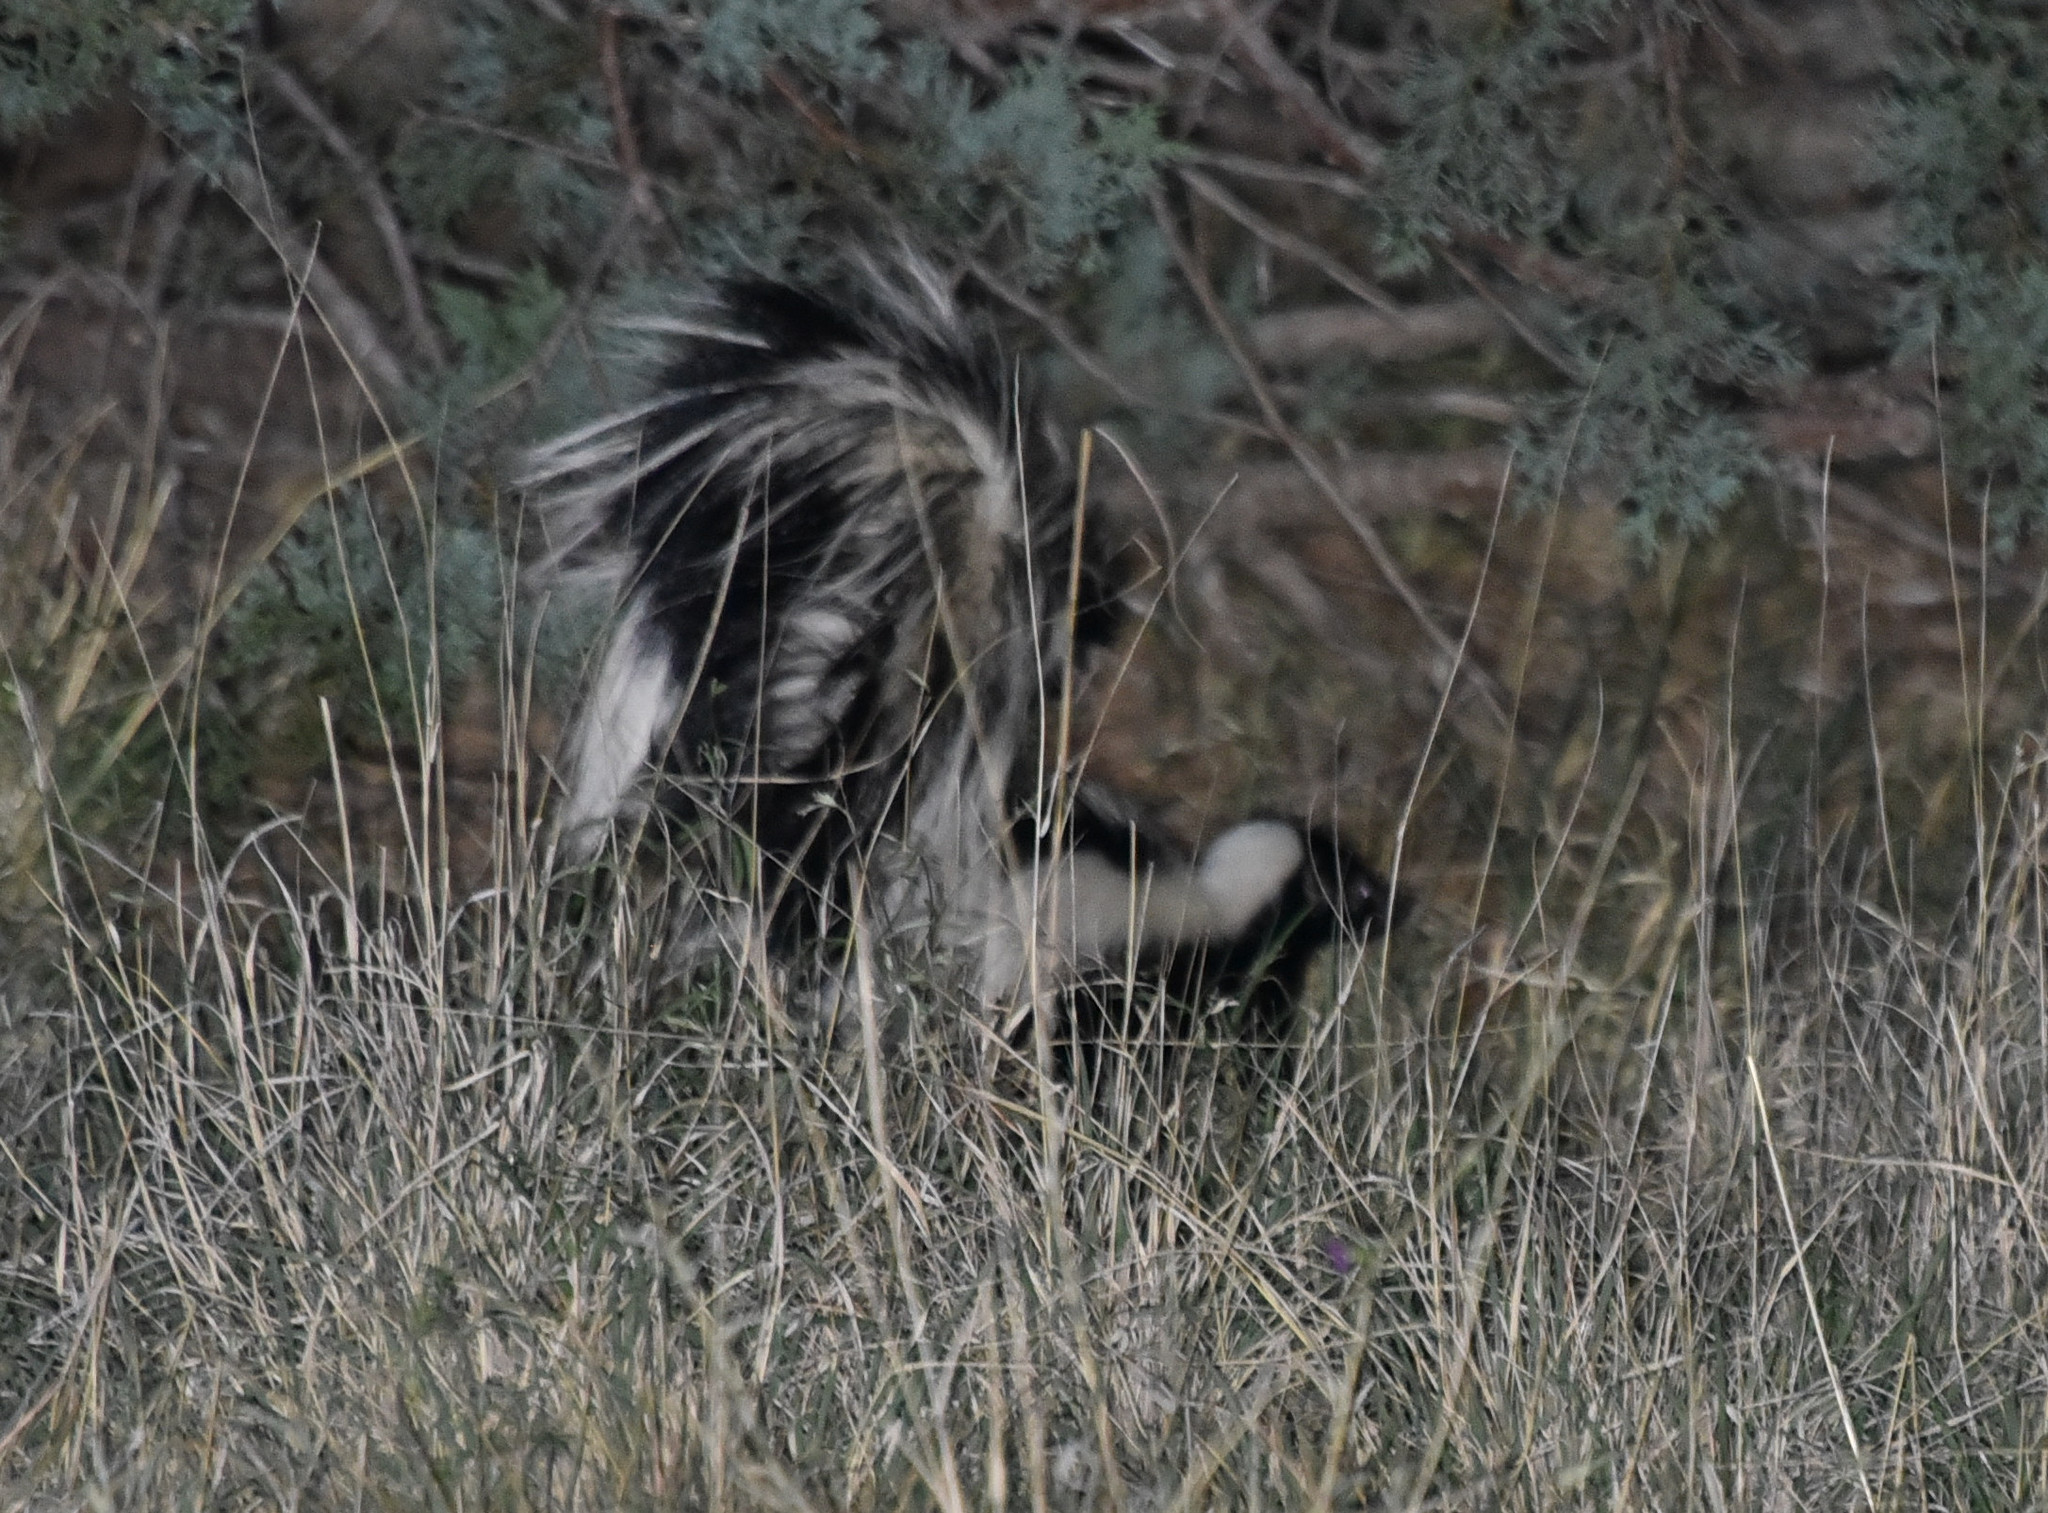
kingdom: Animalia
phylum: Chordata
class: Mammalia
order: Carnivora
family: Mephitidae
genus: Mephitis
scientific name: Mephitis mephitis
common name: Striped skunk
